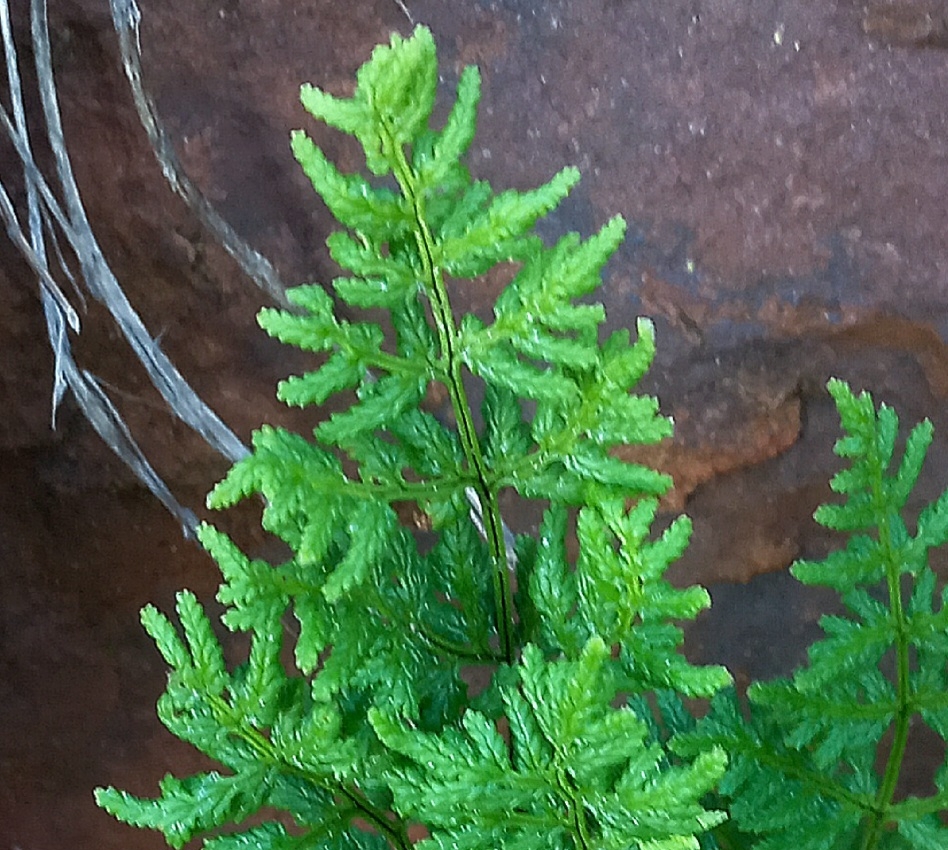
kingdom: Plantae
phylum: Tracheophyta
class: Polypodiopsida
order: Polypodiales
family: Pteridaceae
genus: Cheilanthes
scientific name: Cheilanthes multifida
